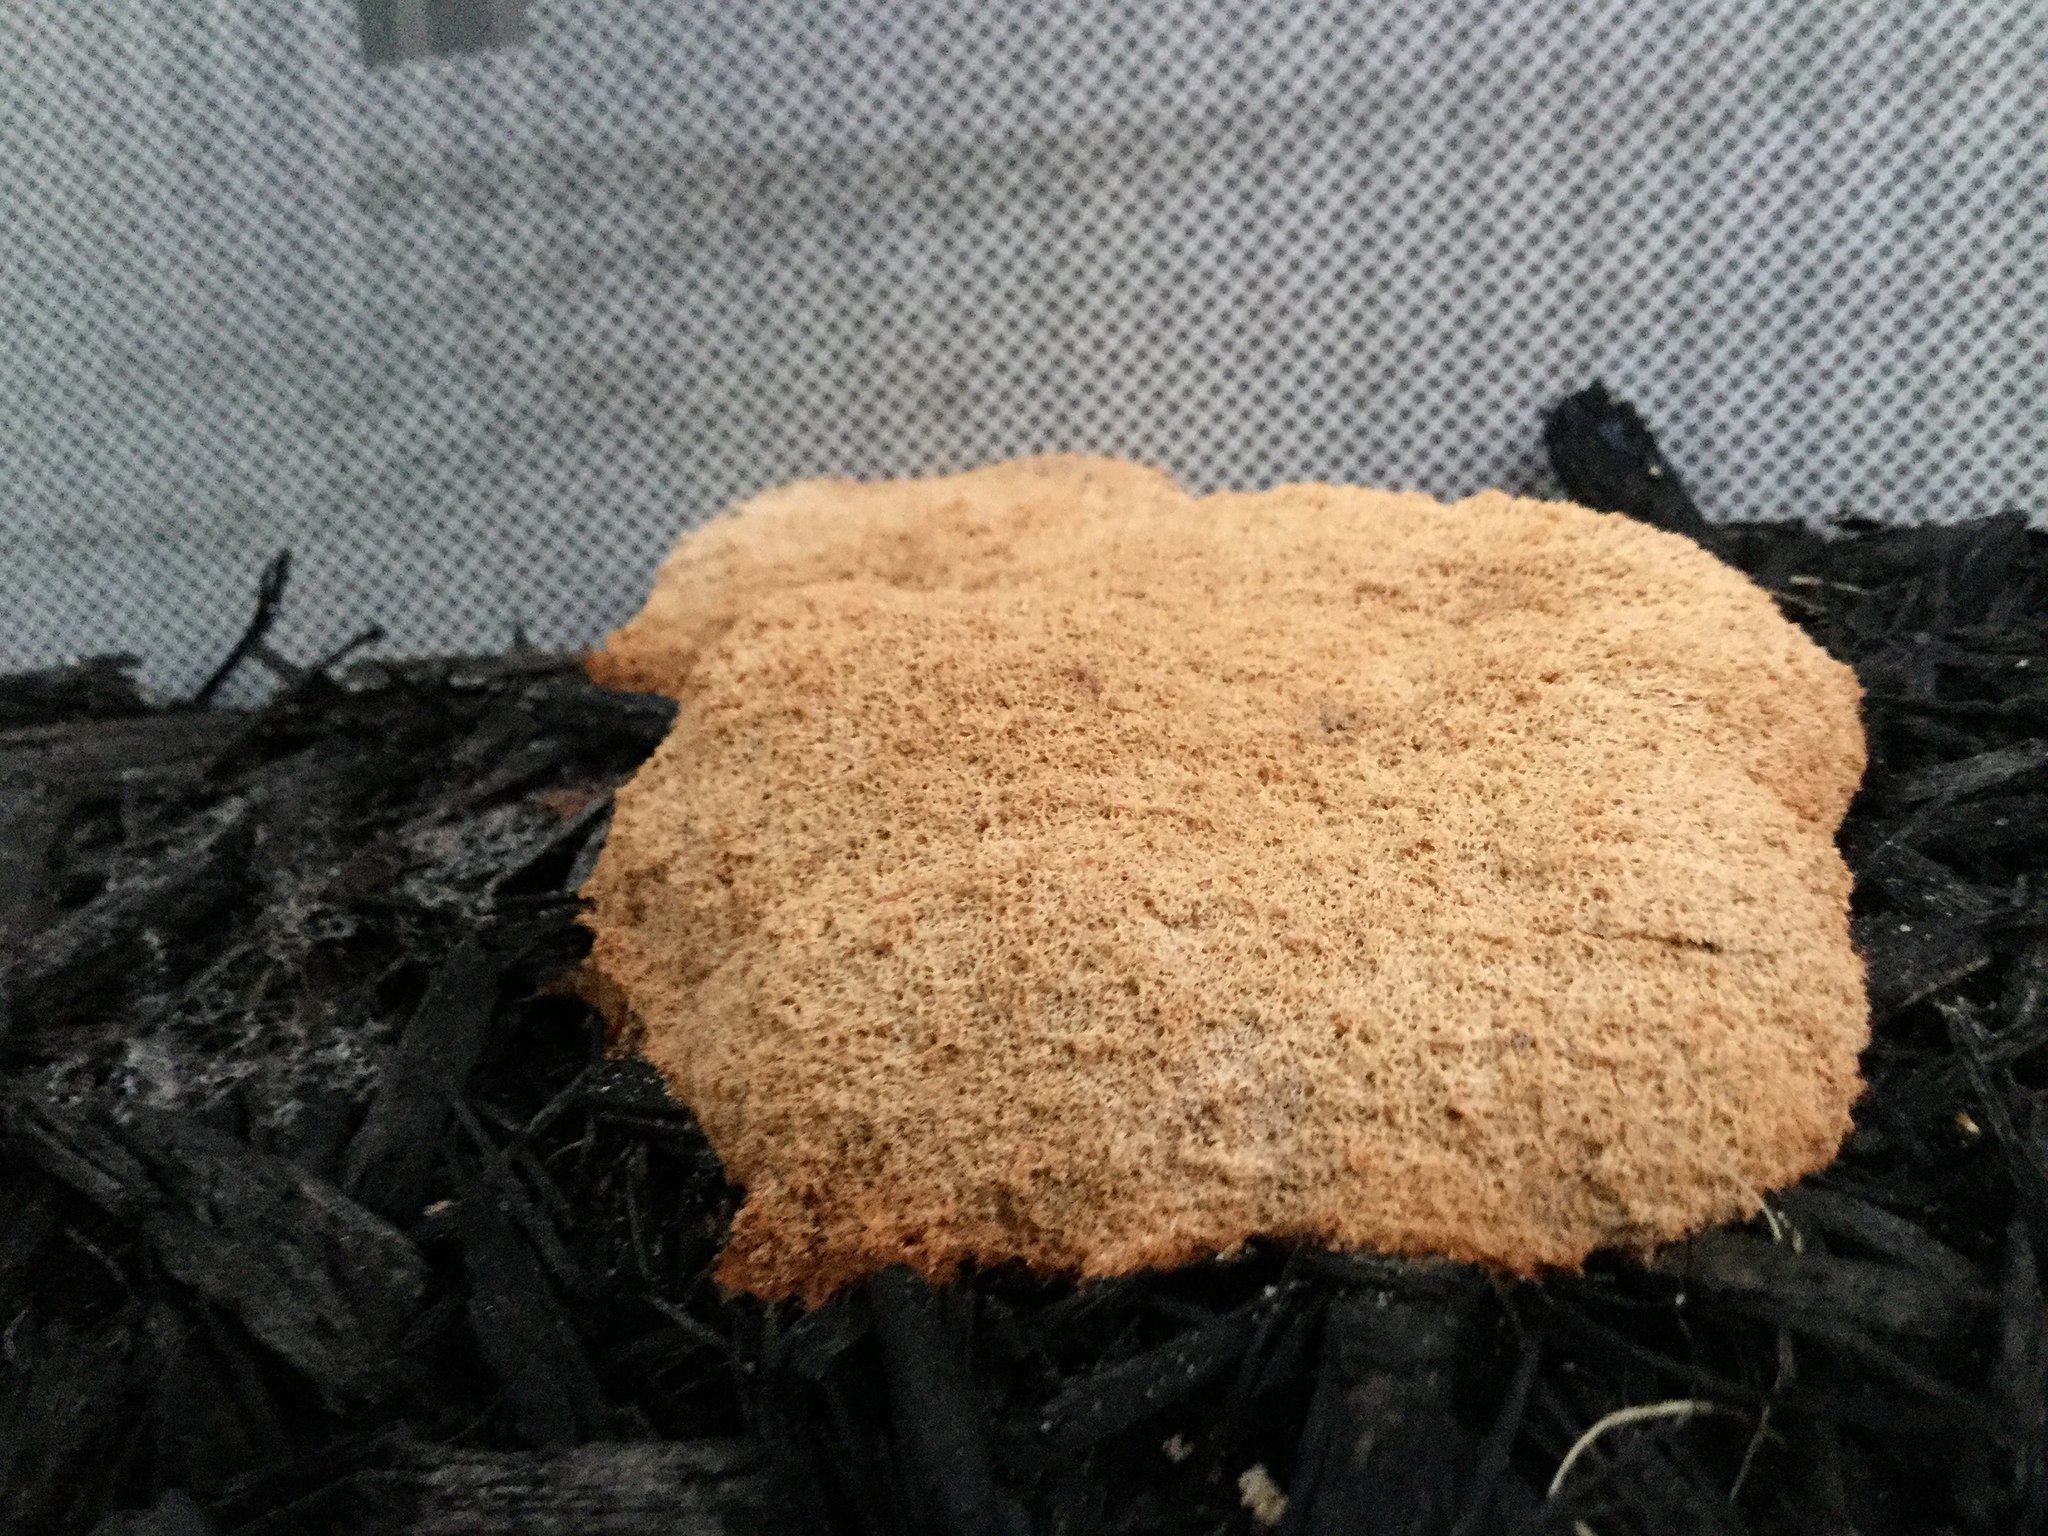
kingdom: Protozoa
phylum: Mycetozoa
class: Myxomycetes
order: Physarales
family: Physaraceae
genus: Fuligo
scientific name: Fuligo septica
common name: Dog vomit slime mold
